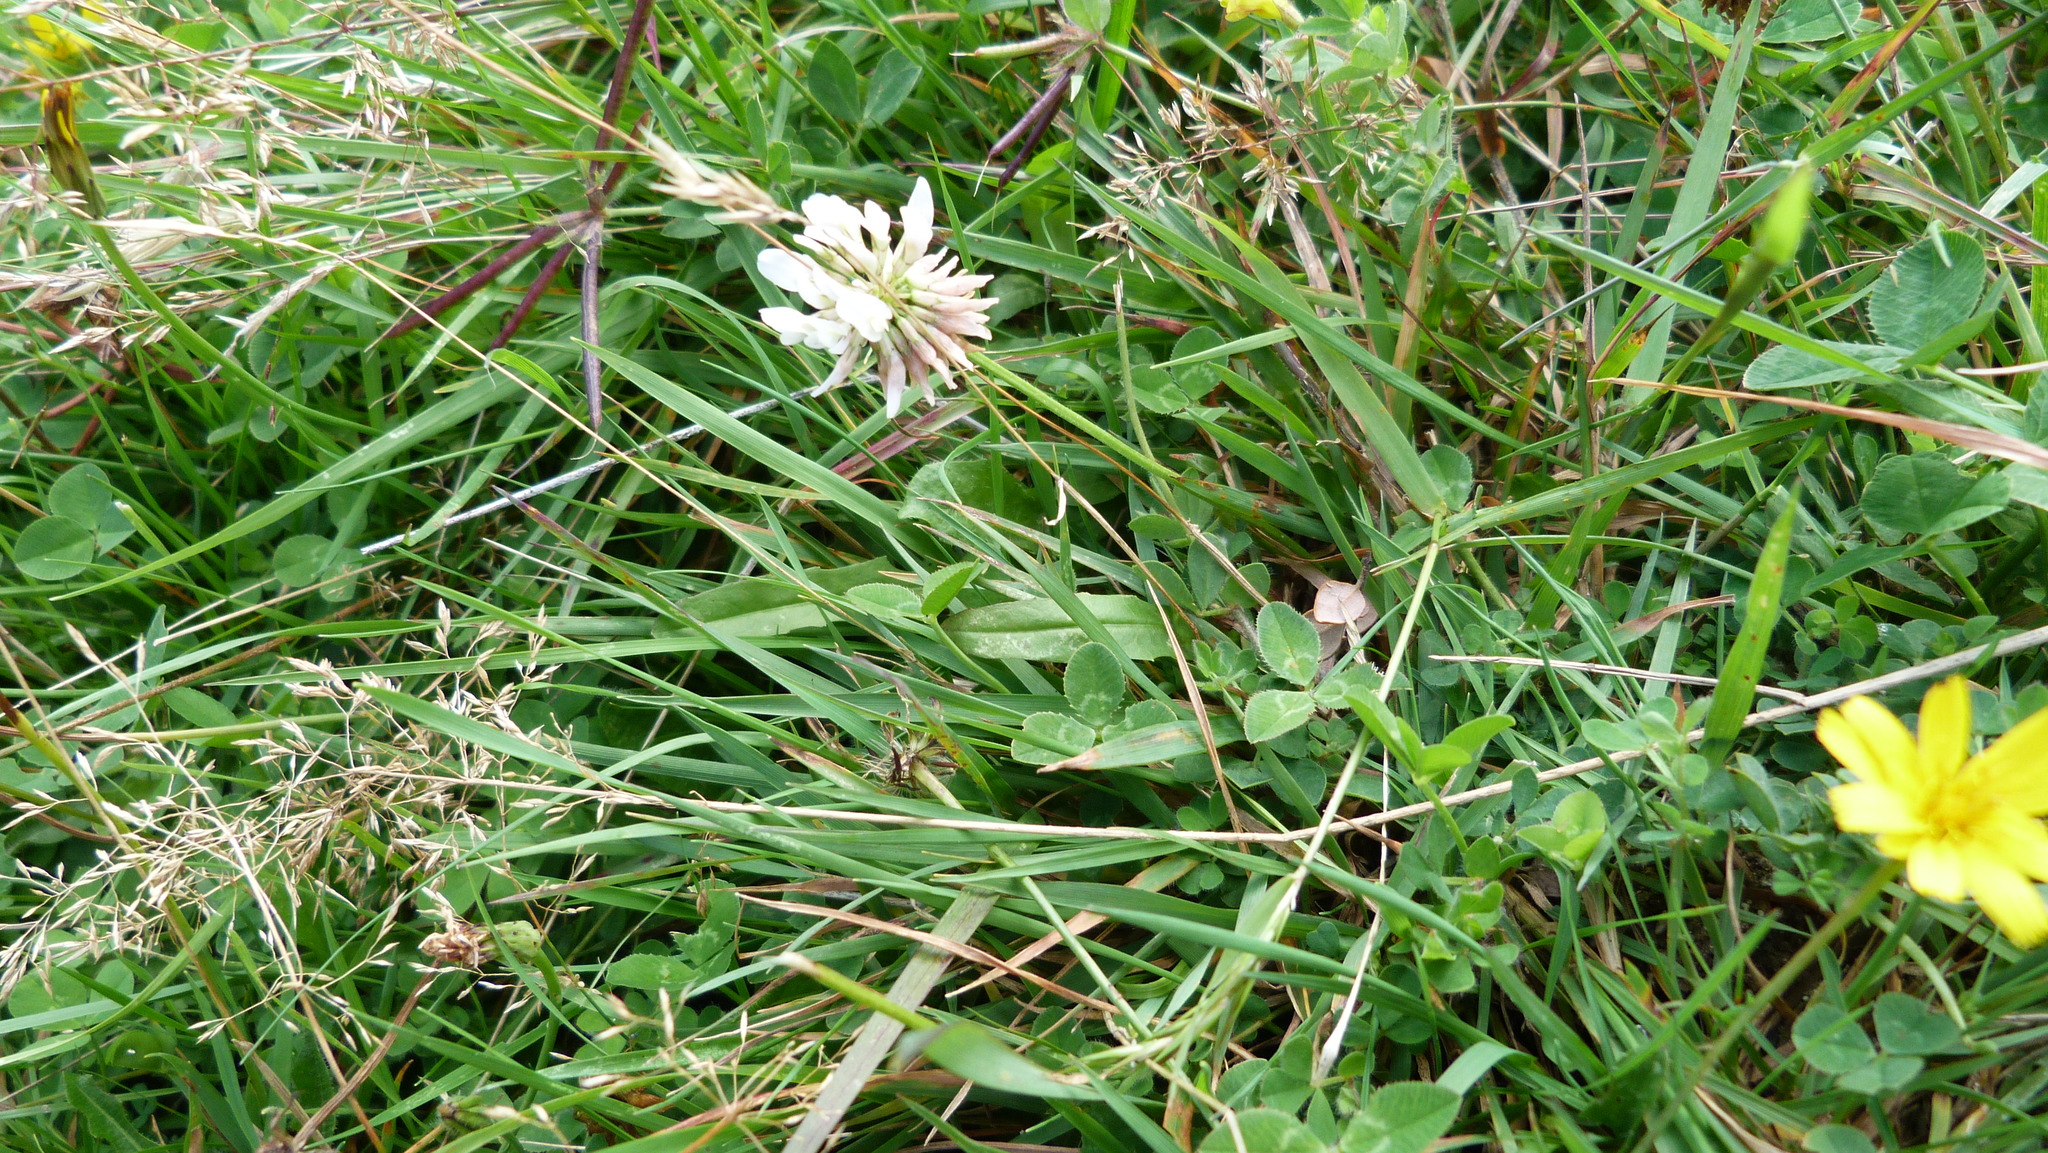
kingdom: Plantae
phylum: Tracheophyta
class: Magnoliopsida
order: Fabales
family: Fabaceae
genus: Trifolium
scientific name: Trifolium repens
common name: White clover
